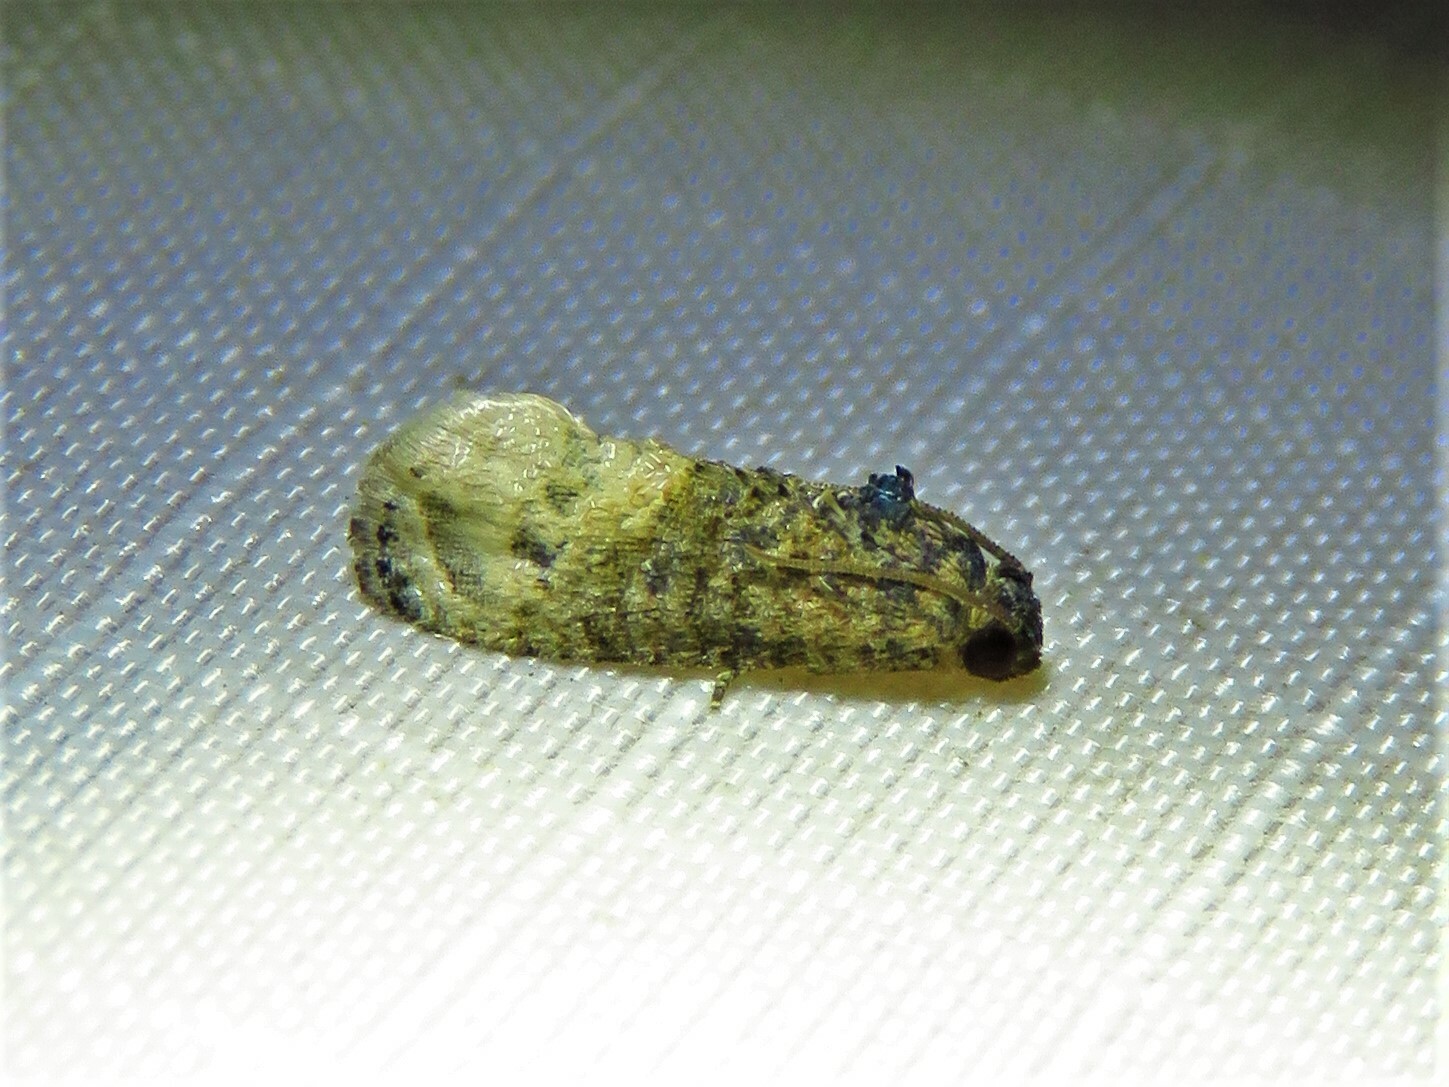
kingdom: Animalia
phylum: Arthropoda
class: Insecta
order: Lepidoptera
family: Tortricidae
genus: Ecdytolopha
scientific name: Ecdytolopha mana
